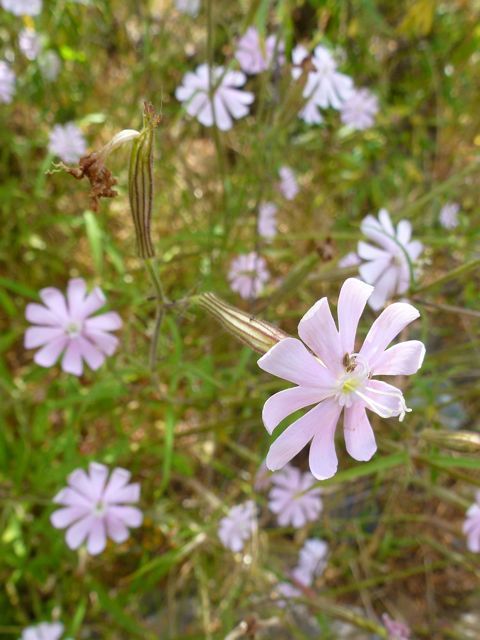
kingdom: Plantae
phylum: Tracheophyta
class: Magnoliopsida
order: Caryophyllales
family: Caryophyllaceae
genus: Silene
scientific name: Silene undulata
